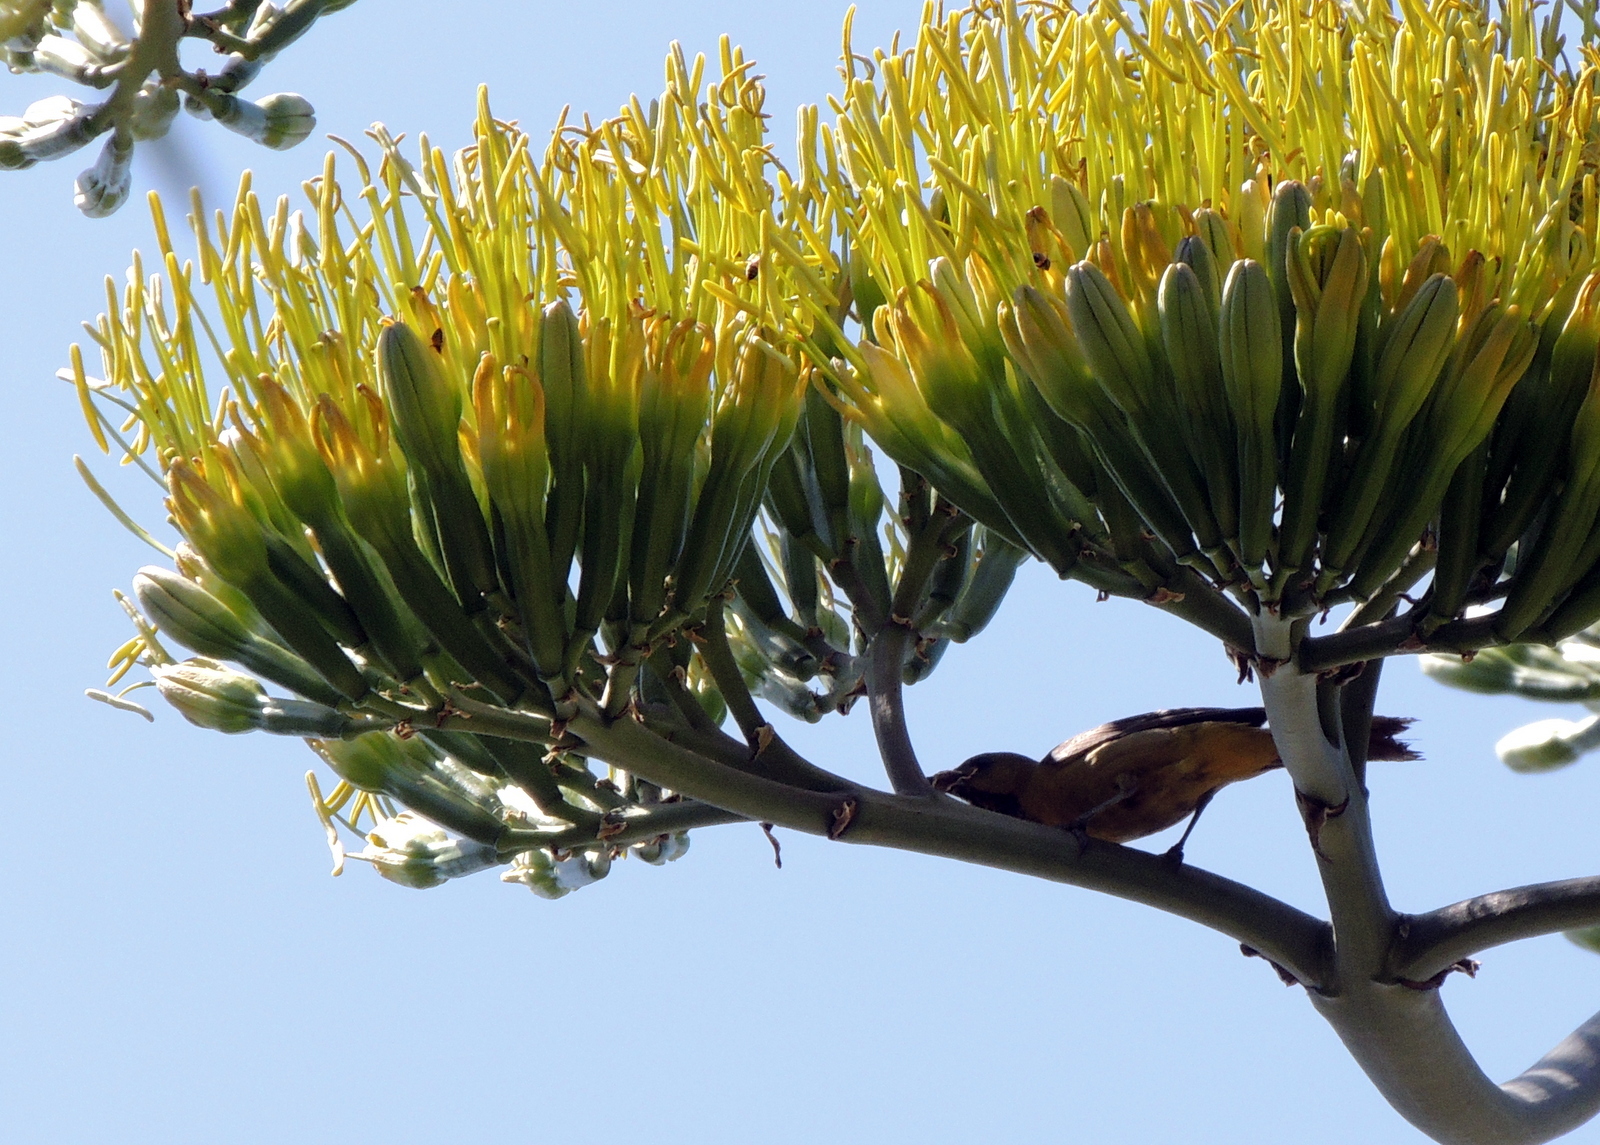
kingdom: Animalia
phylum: Chordata
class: Aves
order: Passeriformes
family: Icteridae
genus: Icterus
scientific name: Icterus cucullatus
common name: Hooded oriole
